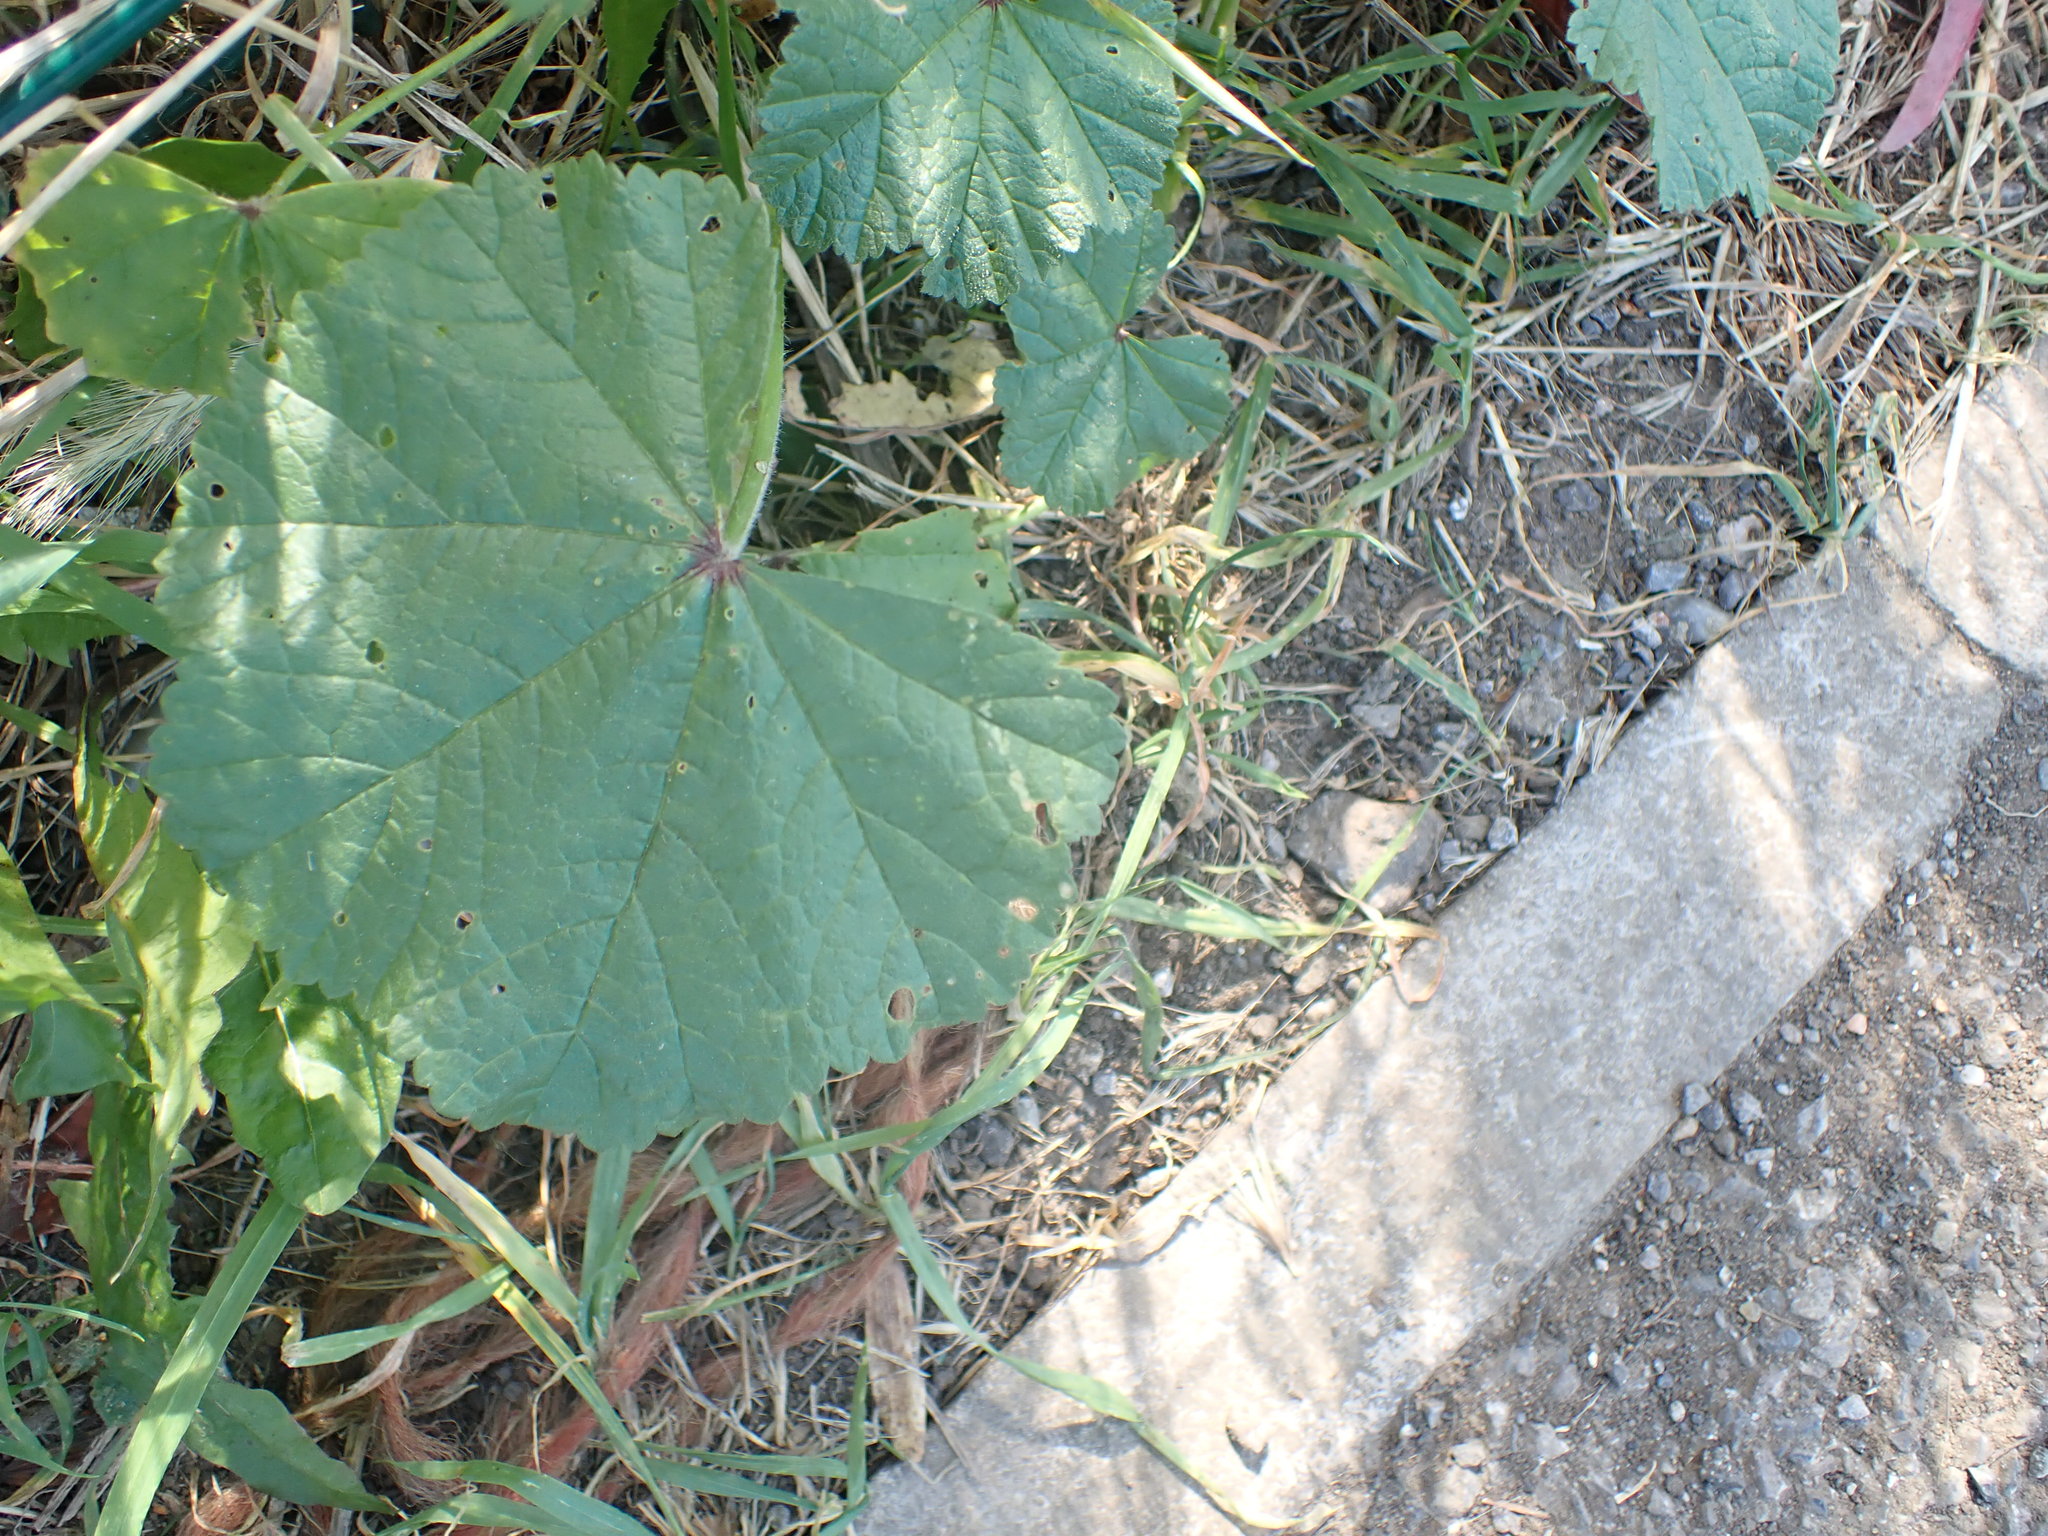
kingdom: Plantae
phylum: Tracheophyta
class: Magnoliopsida
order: Malvales
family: Malvaceae
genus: Malva
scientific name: Malva sylvestris
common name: Common mallow
